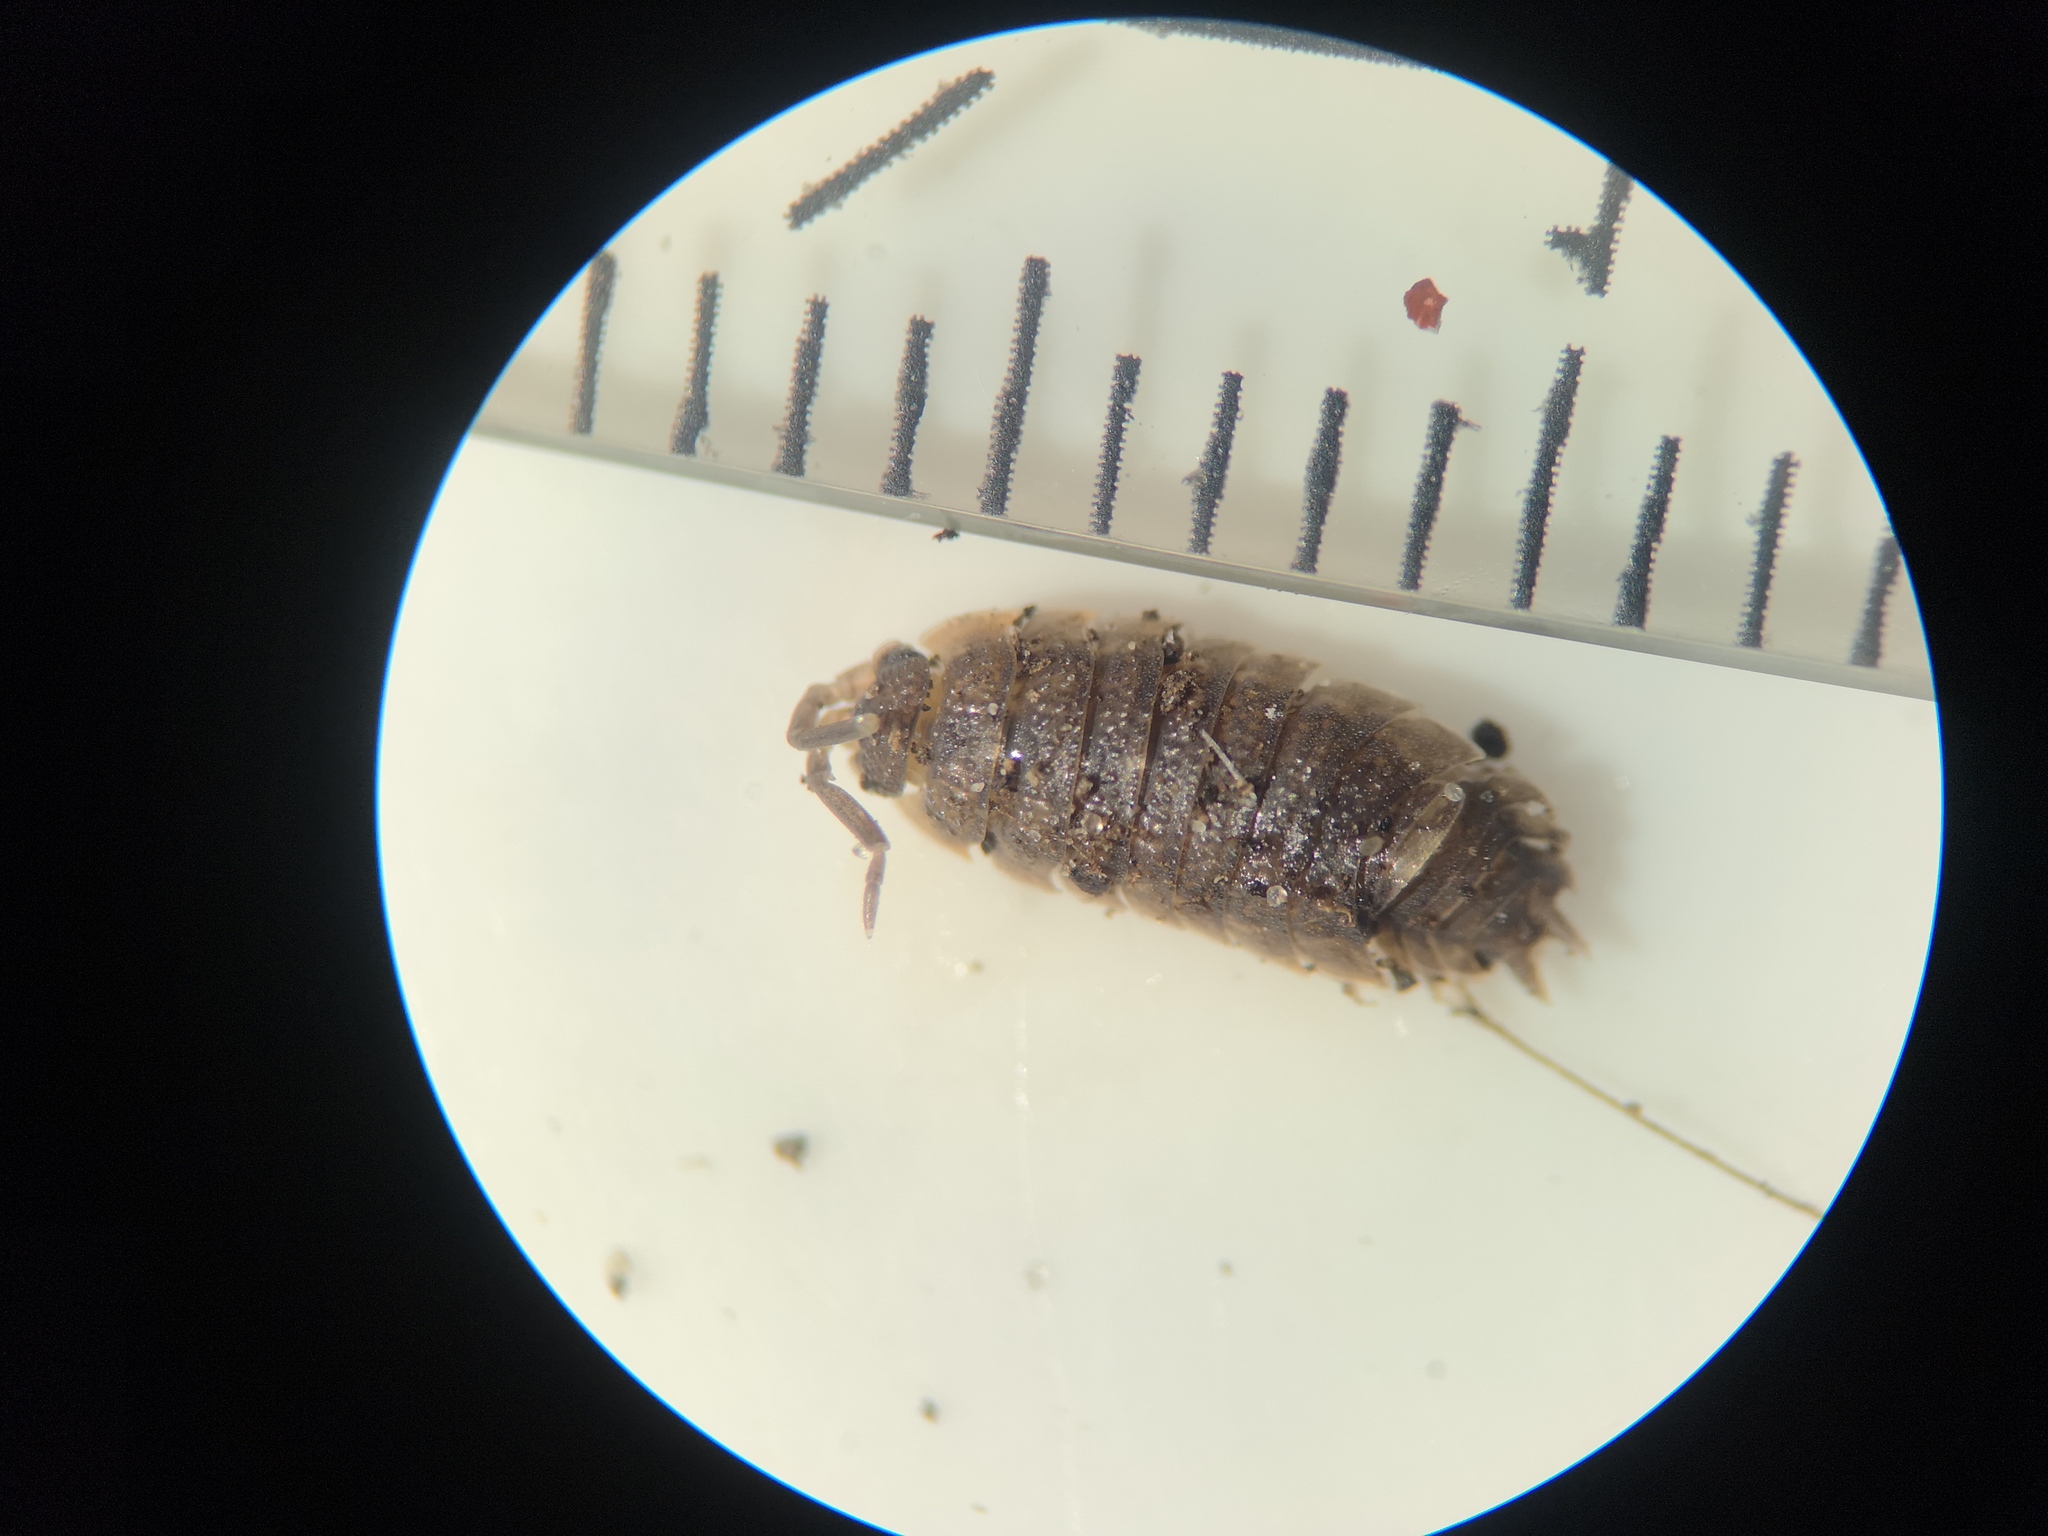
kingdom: Animalia
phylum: Arthropoda
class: Malacostraca
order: Isopoda
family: Porcellionidae
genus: Porcellio
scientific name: Porcellio scaber
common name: Common rough woodlouse
